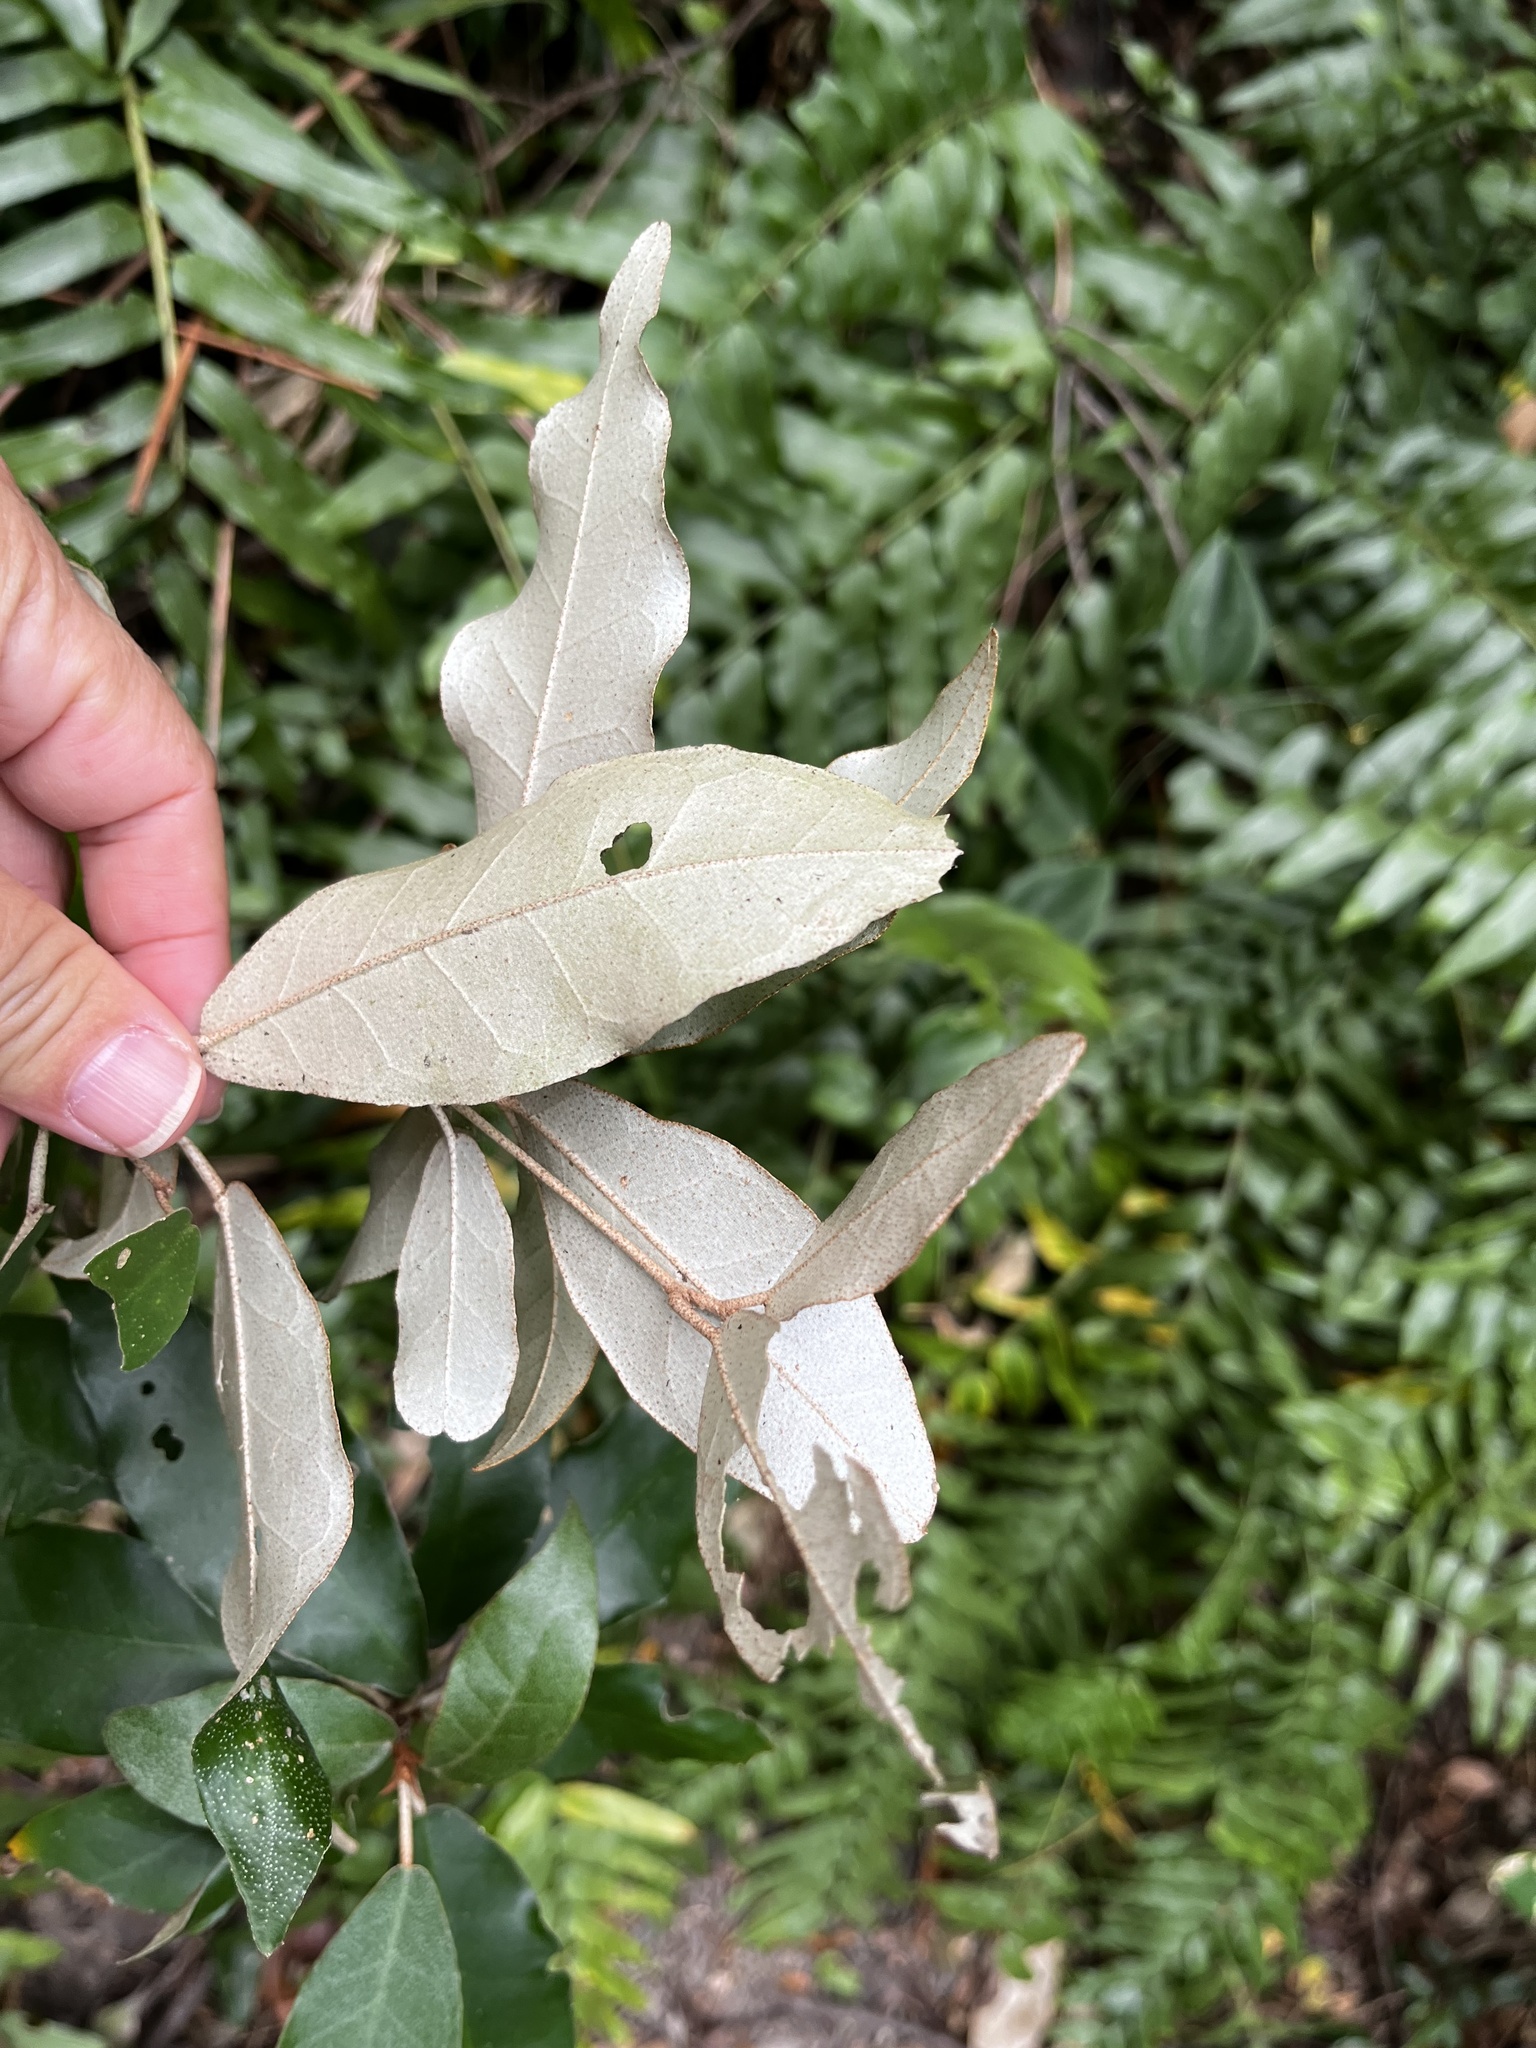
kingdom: Plantae
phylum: Tracheophyta
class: Magnoliopsida
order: Malpighiales
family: Euphorbiaceae
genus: Croton
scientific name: Croton cascarilloides
